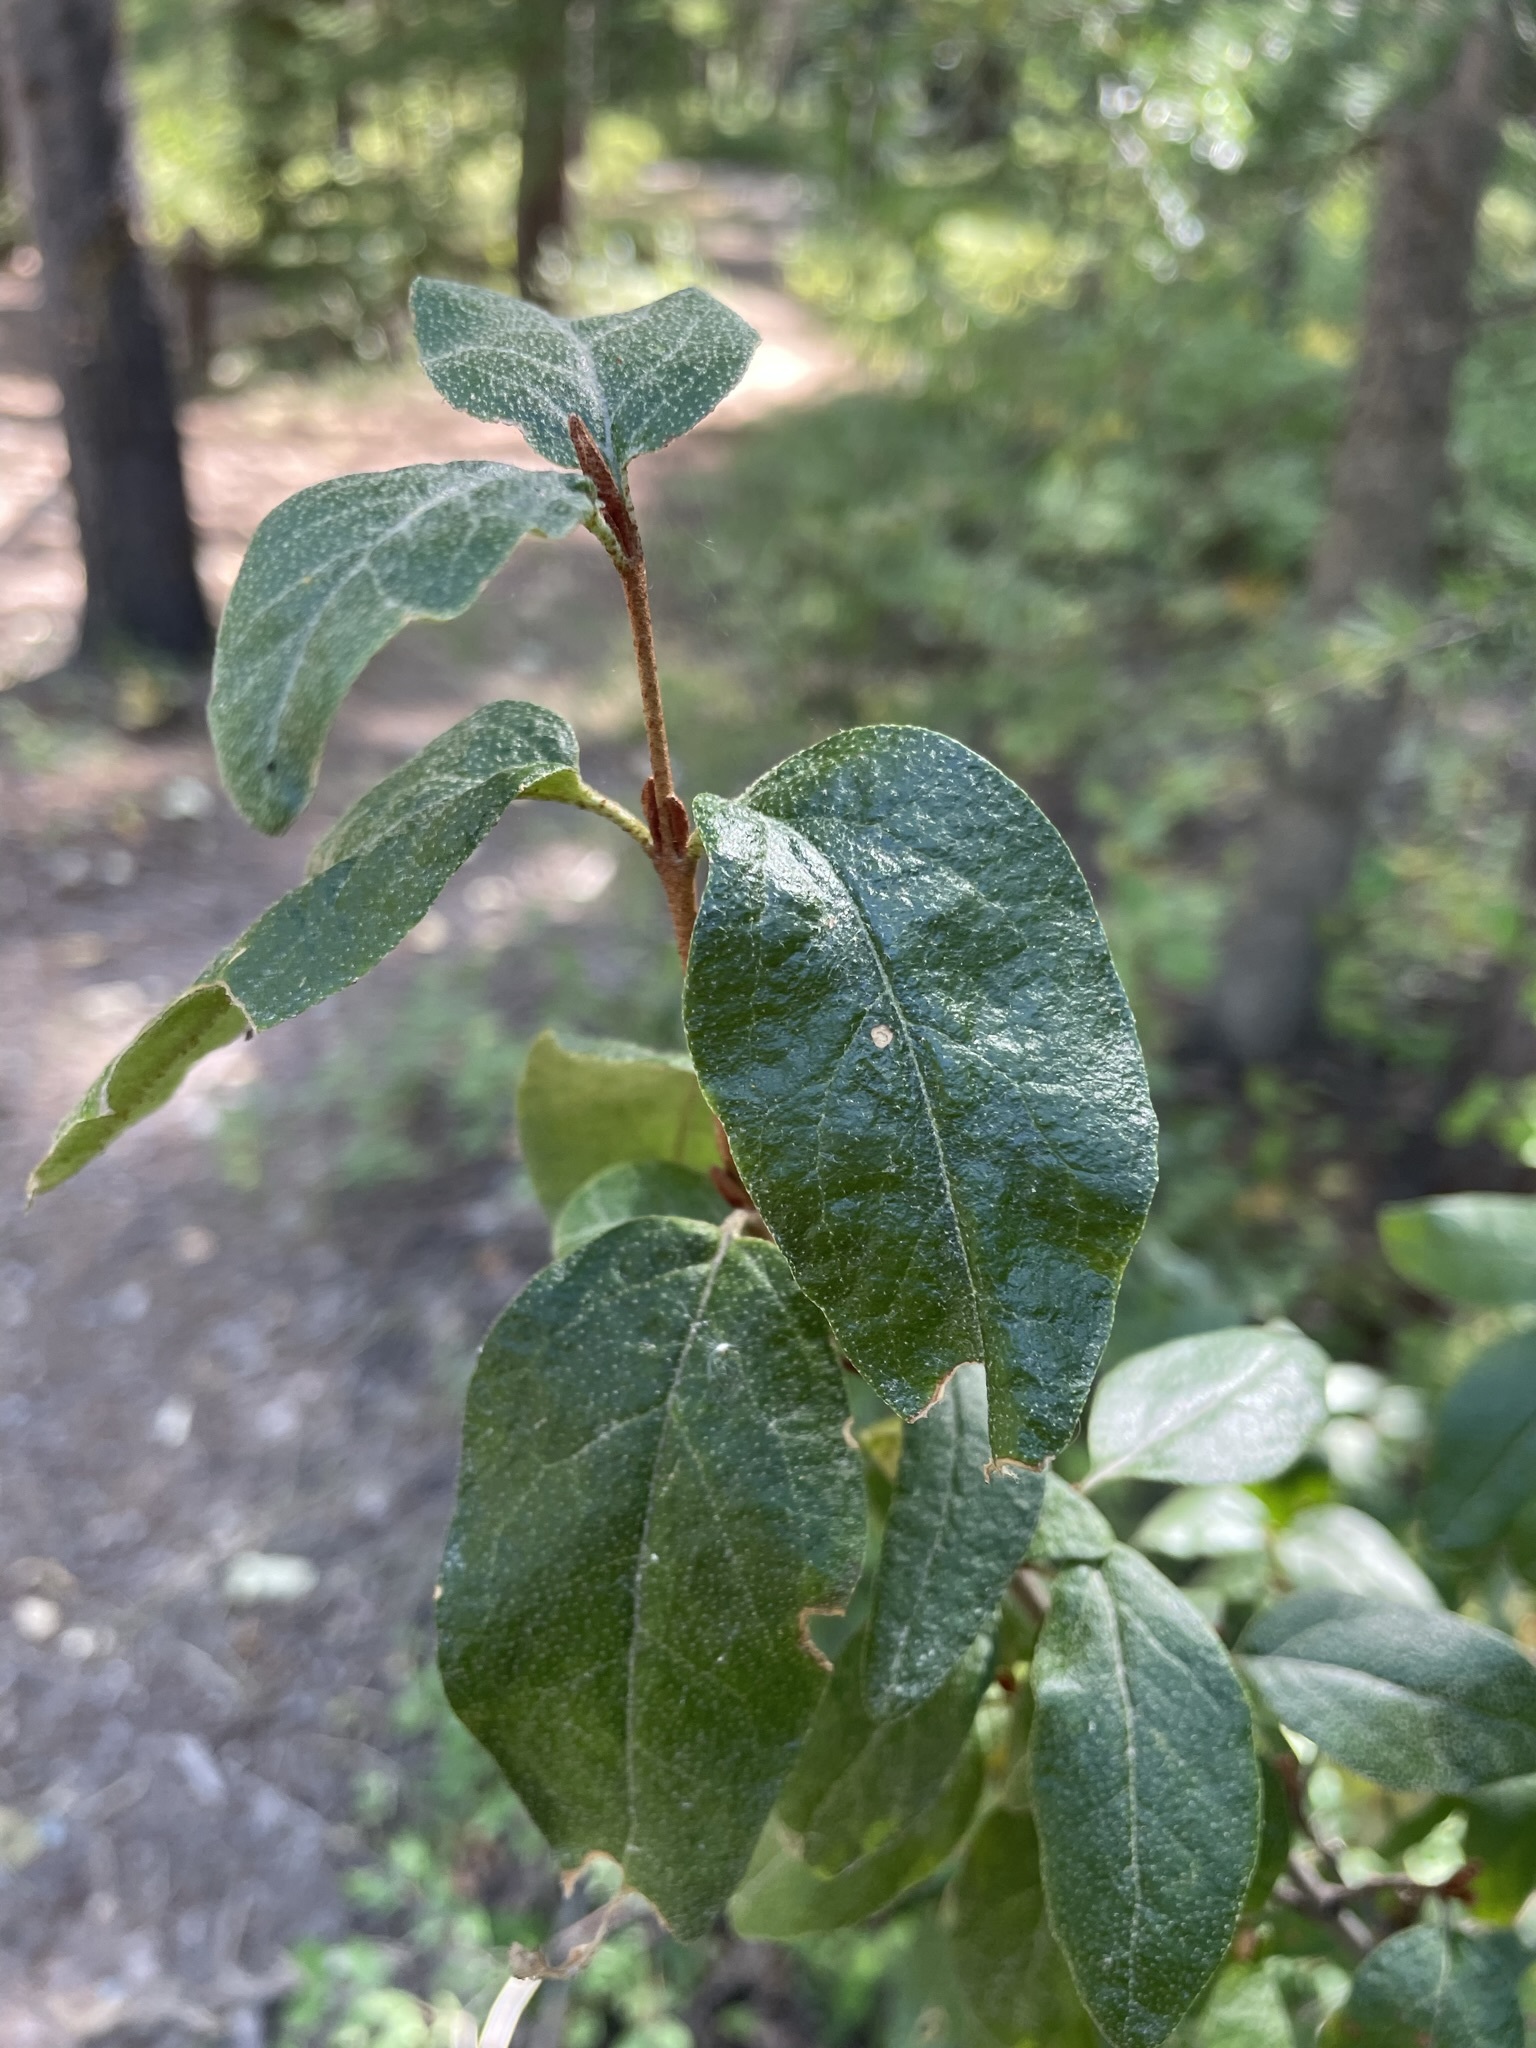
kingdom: Plantae
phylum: Tracheophyta
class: Magnoliopsida
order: Rosales
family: Elaeagnaceae
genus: Shepherdia
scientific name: Shepherdia canadensis
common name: Soapberry
